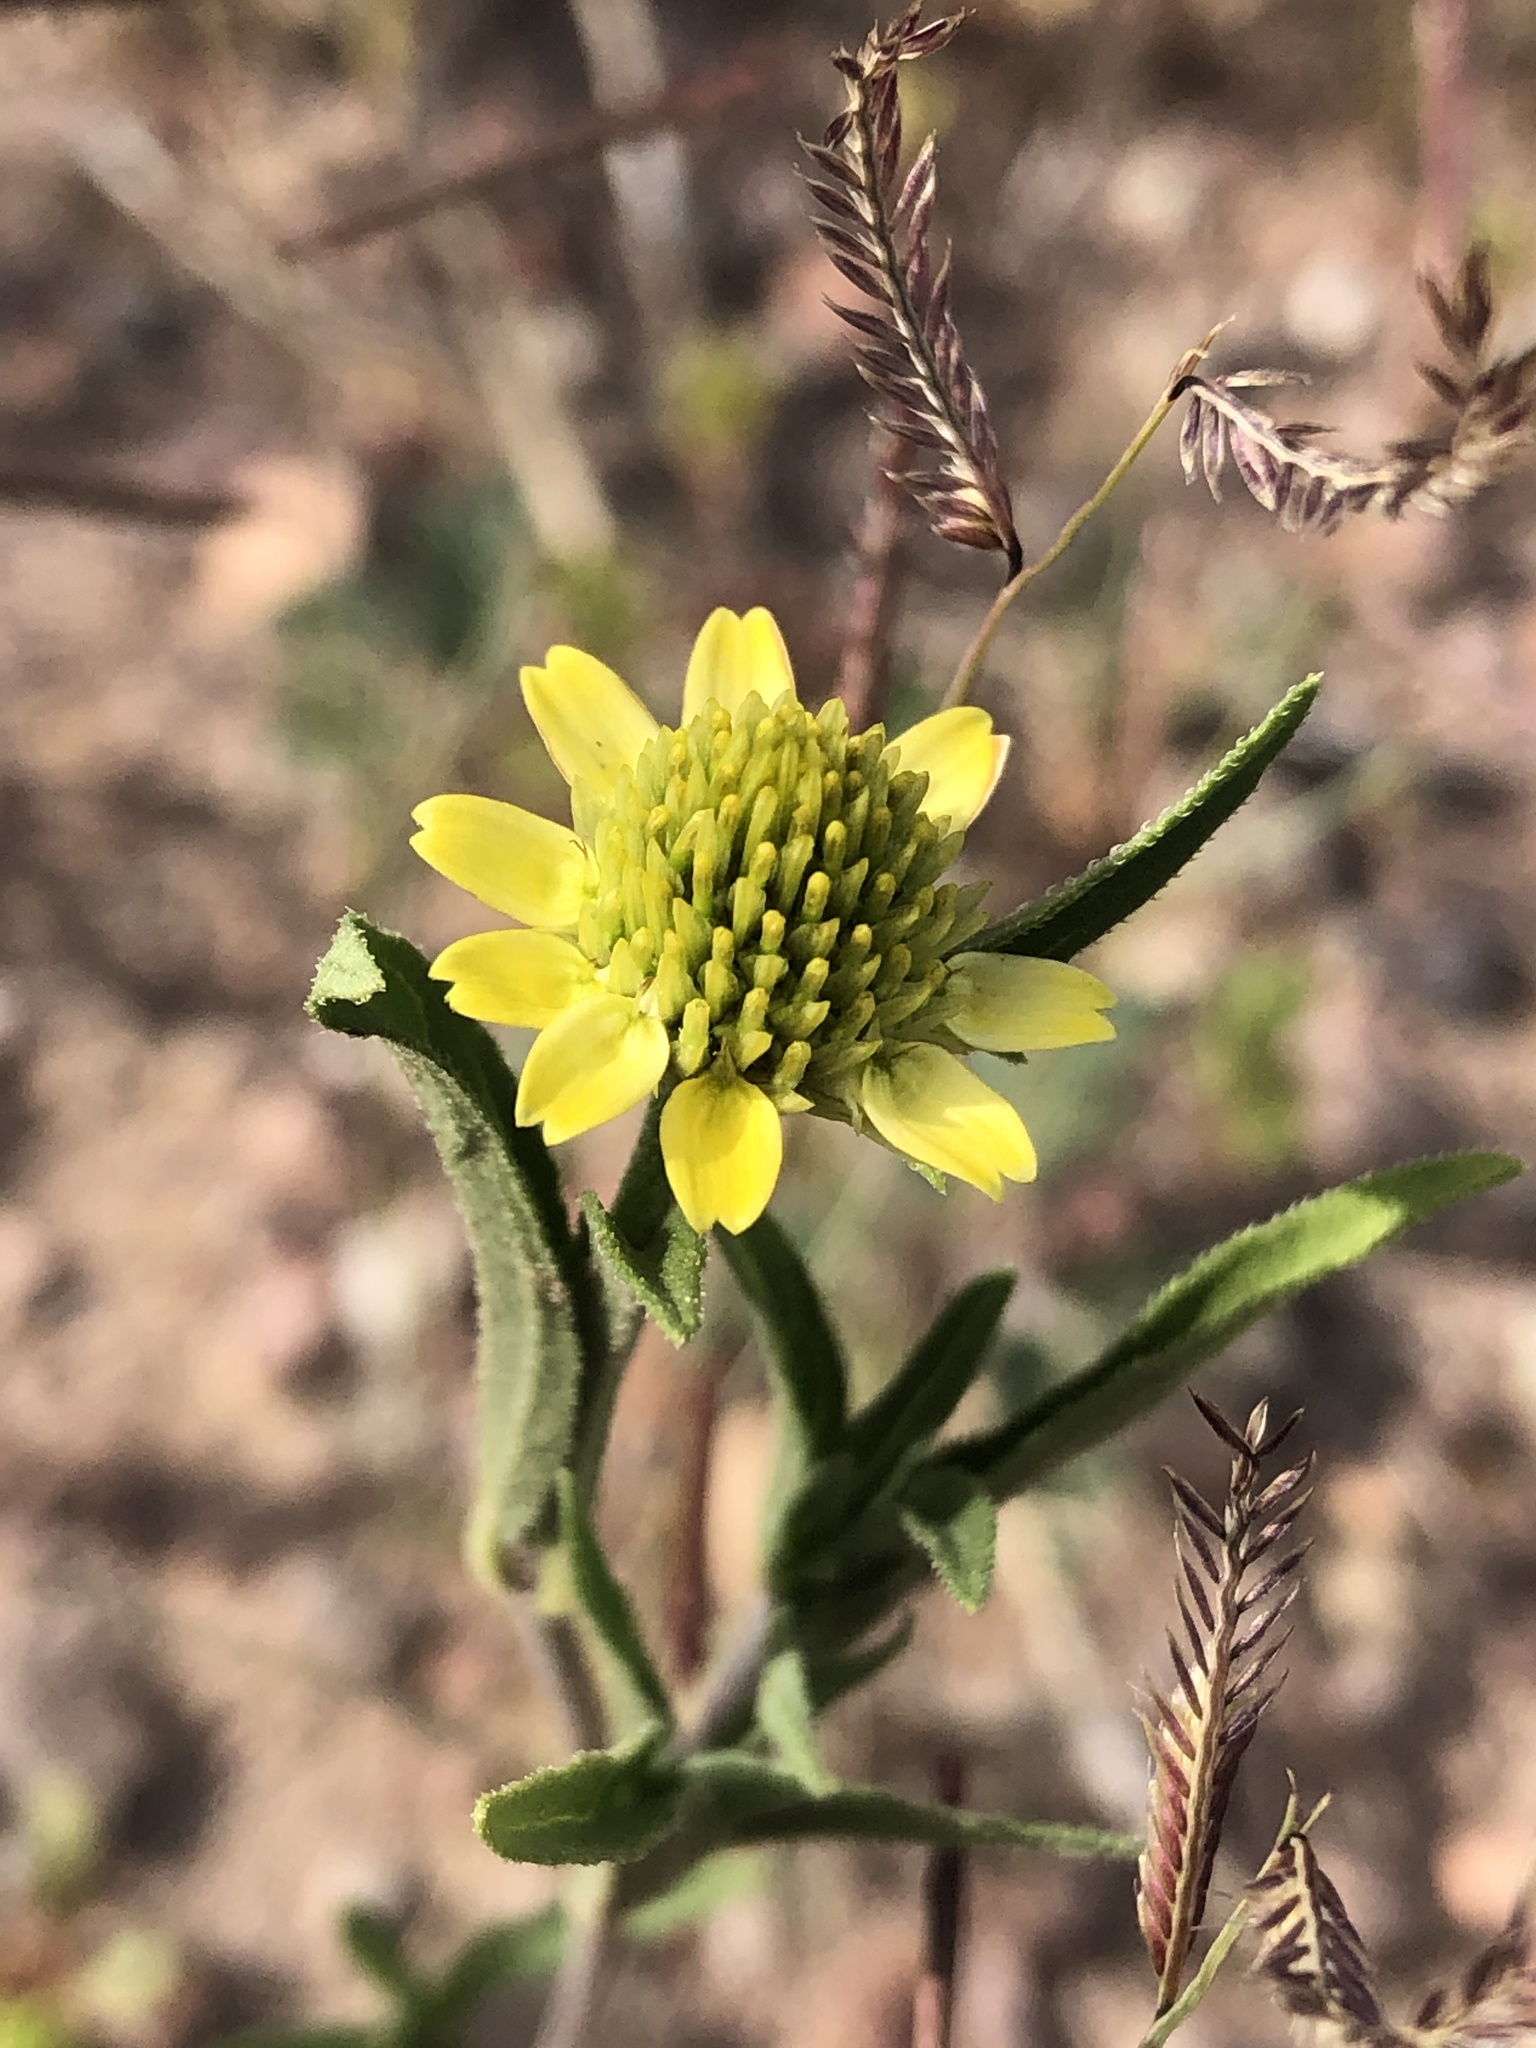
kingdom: Plantae
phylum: Tracheophyta
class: Magnoliopsida
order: Asterales
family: Asteraceae
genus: Sanvitalia
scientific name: Sanvitalia abertii
